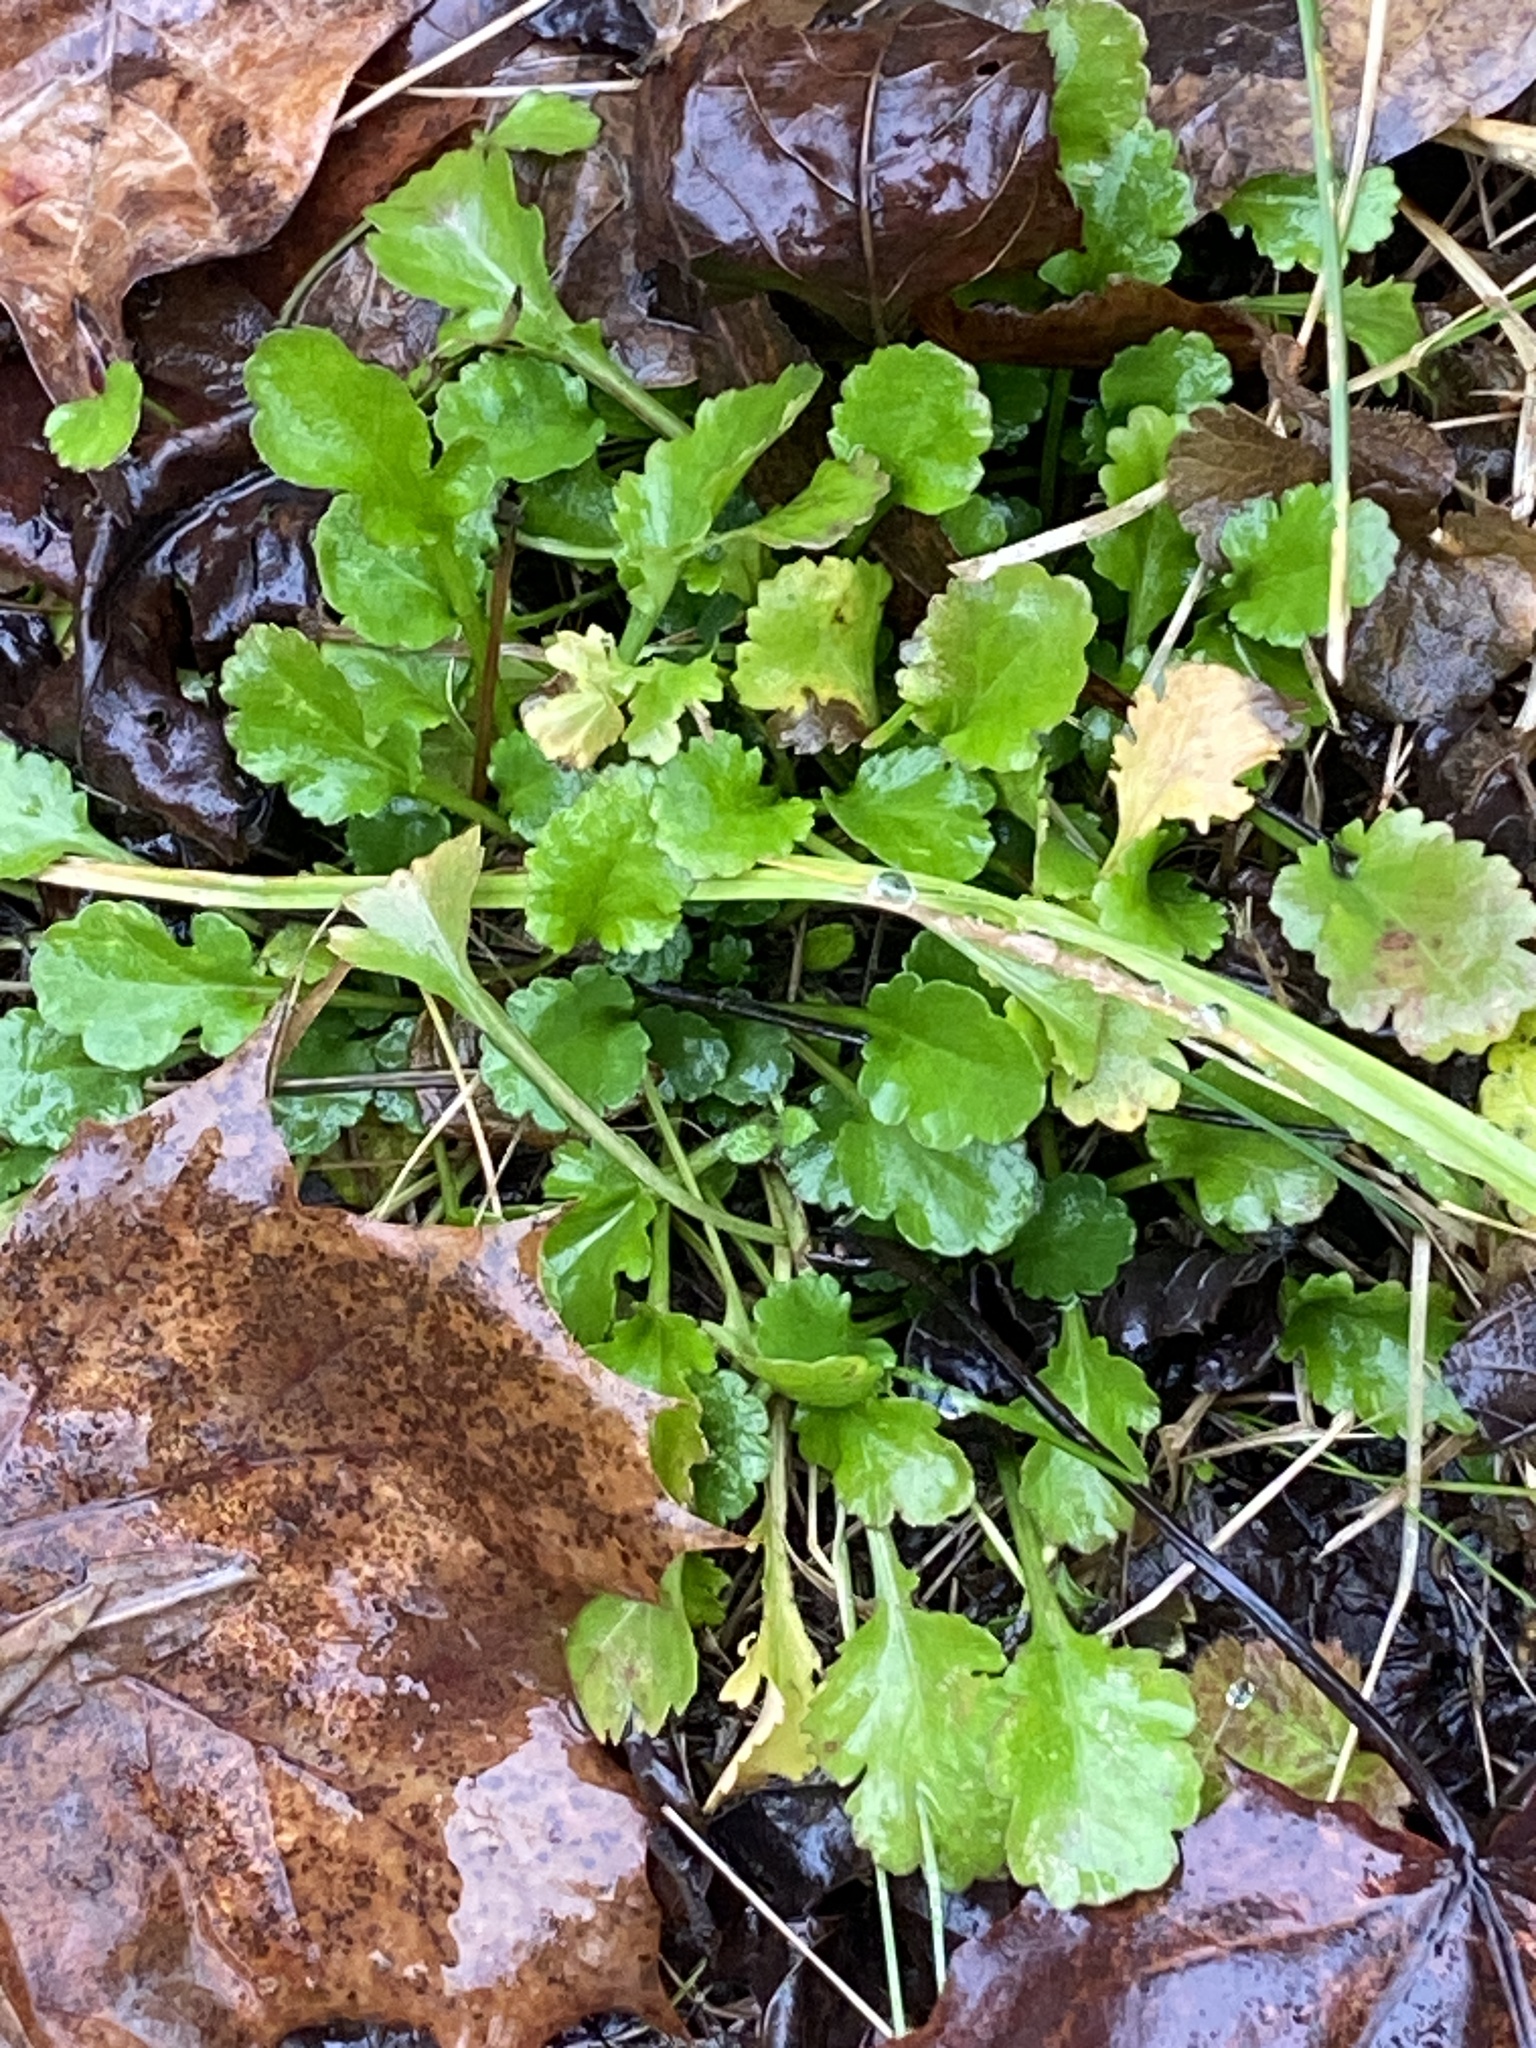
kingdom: Plantae
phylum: Tracheophyta
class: Magnoliopsida
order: Asterales
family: Asteraceae
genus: Leucanthemum
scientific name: Leucanthemum vulgare
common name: Oxeye daisy
